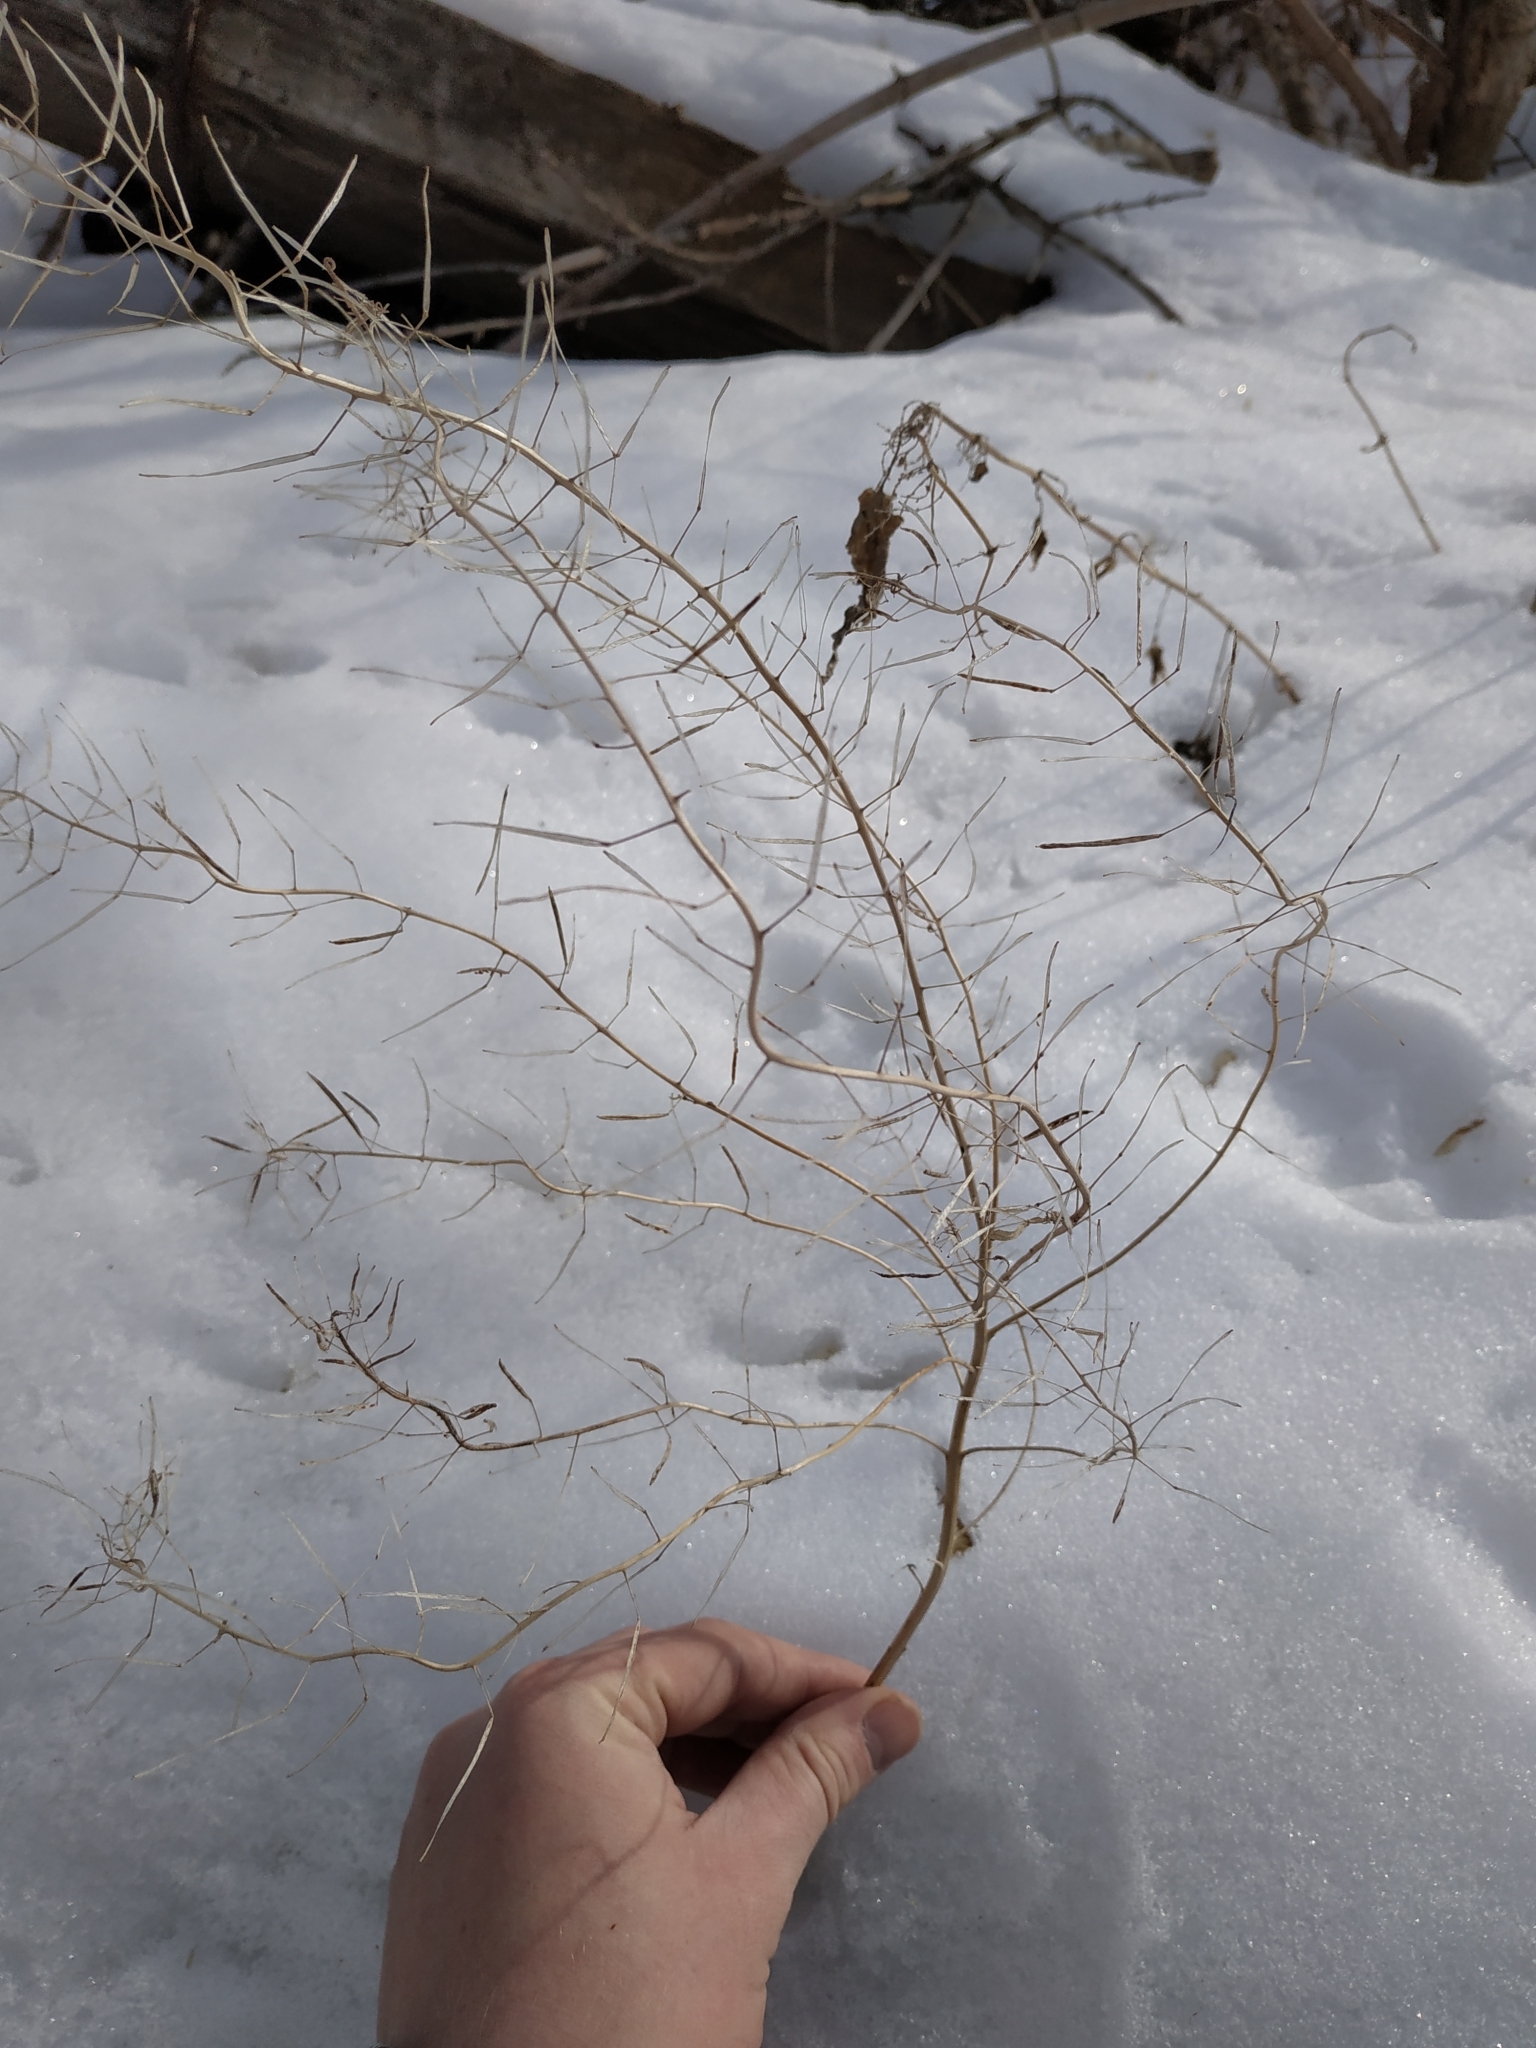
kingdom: Plantae
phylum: Tracheophyta
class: Magnoliopsida
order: Brassicales
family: Brassicaceae
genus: Sisymbrium
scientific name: Sisymbrium loeselii
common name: False london-rocket
